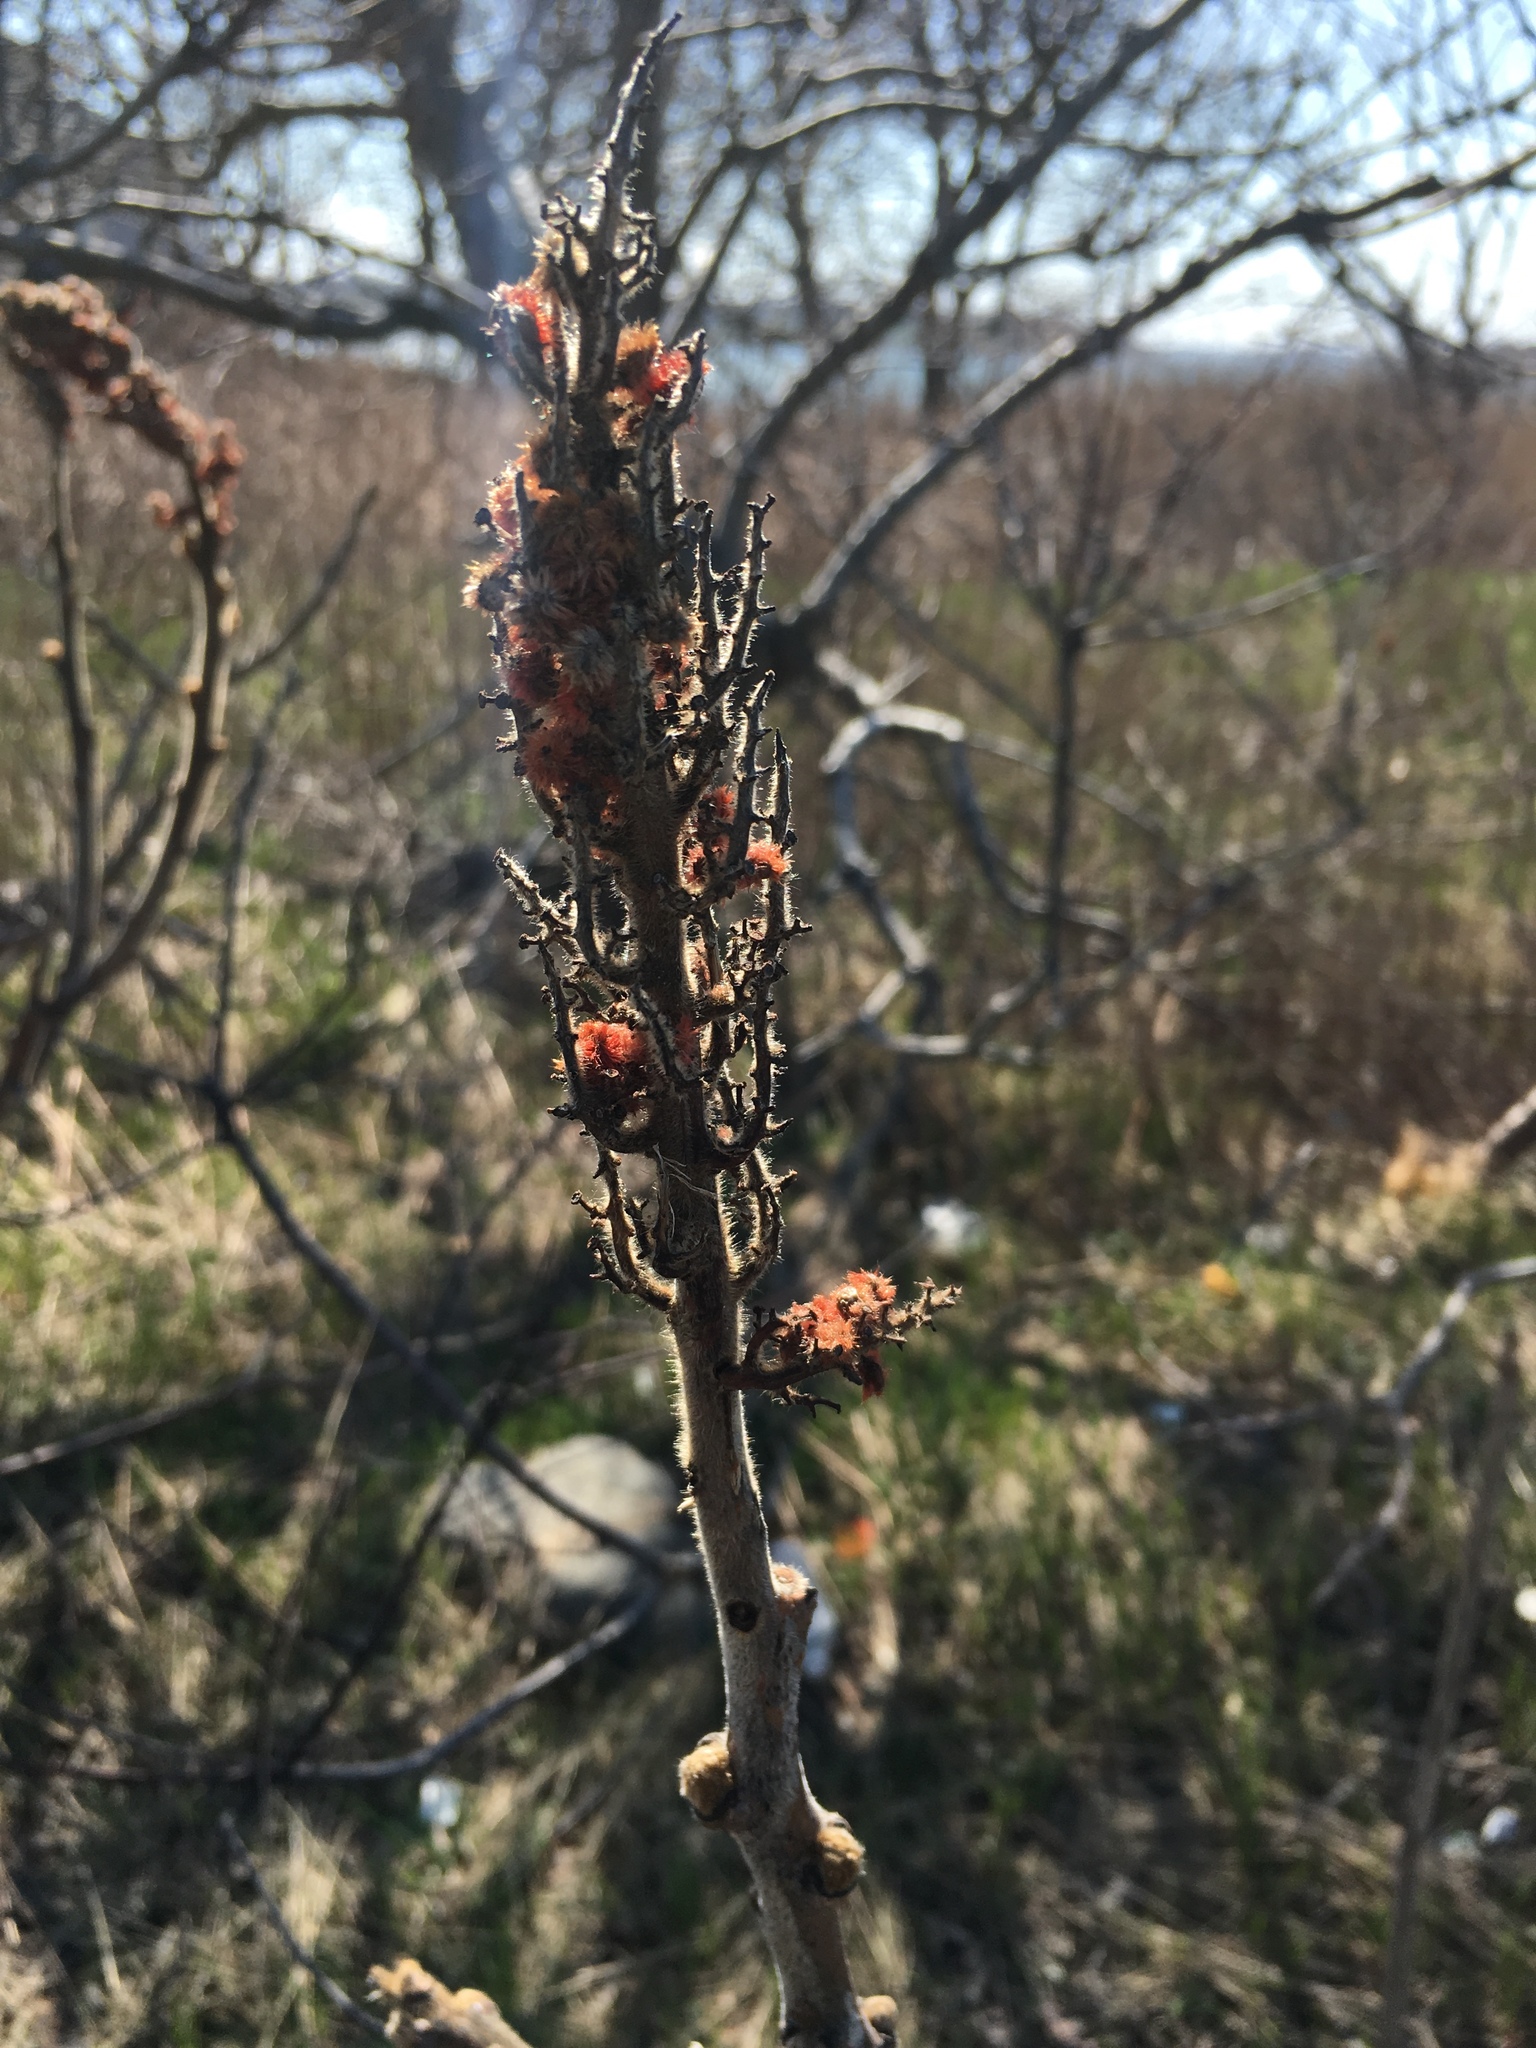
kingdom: Plantae
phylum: Tracheophyta
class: Magnoliopsida
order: Sapindales
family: Anacardiaceae
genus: Rhus
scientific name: Rhus typhina
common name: Staghorn sumac
